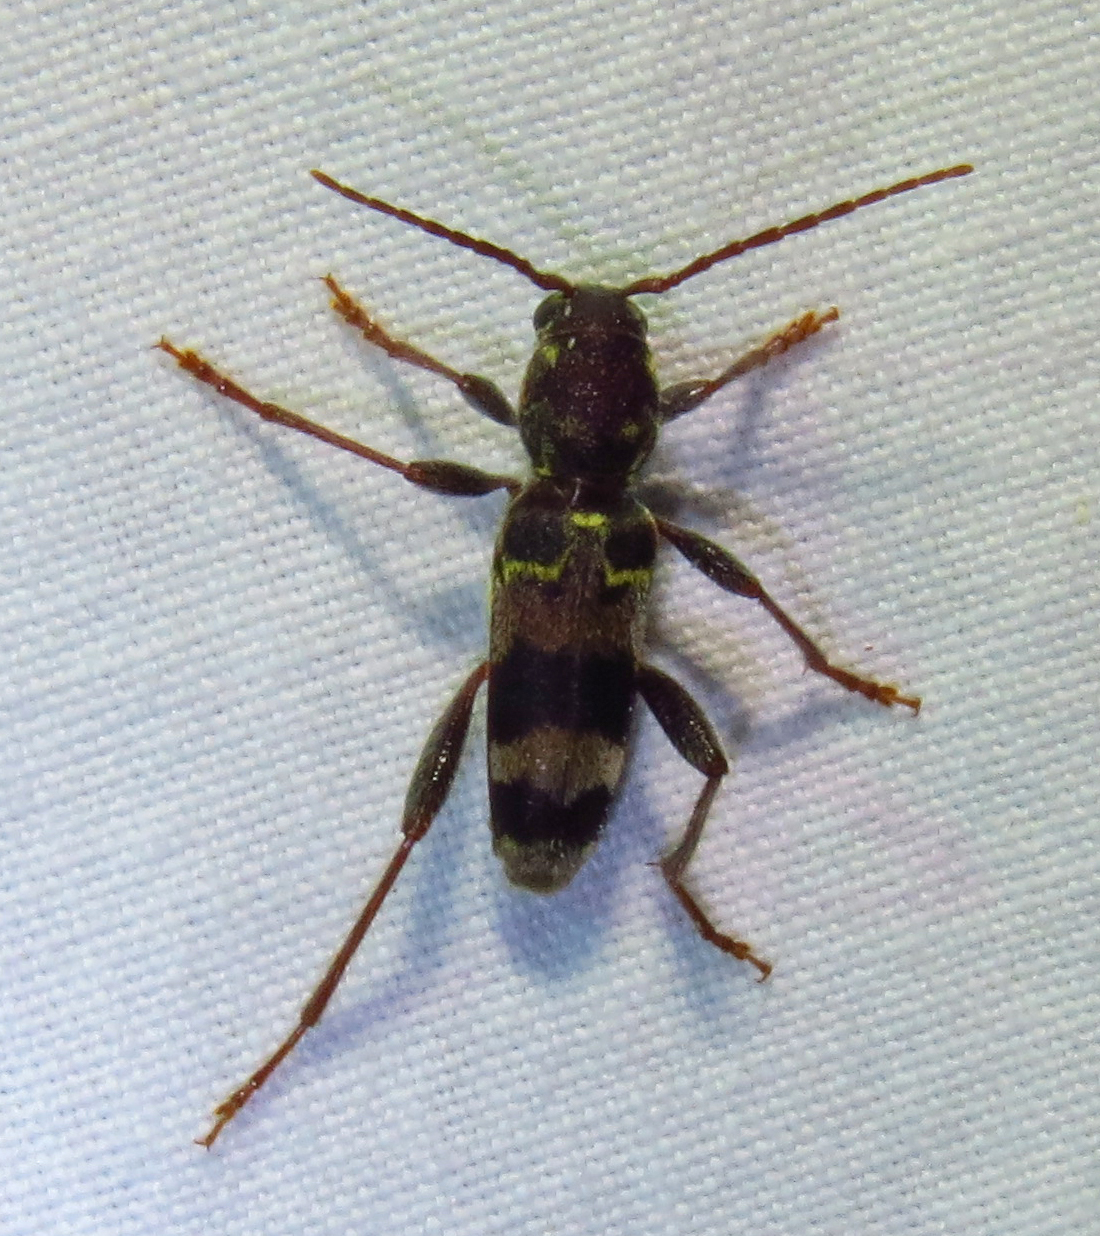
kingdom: Animalia
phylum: Arthropoda
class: Insecta
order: Coleoptera
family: Cerambycidae
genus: Xylotrechus
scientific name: Xylotrechus colonus
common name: Long-horned beetle
